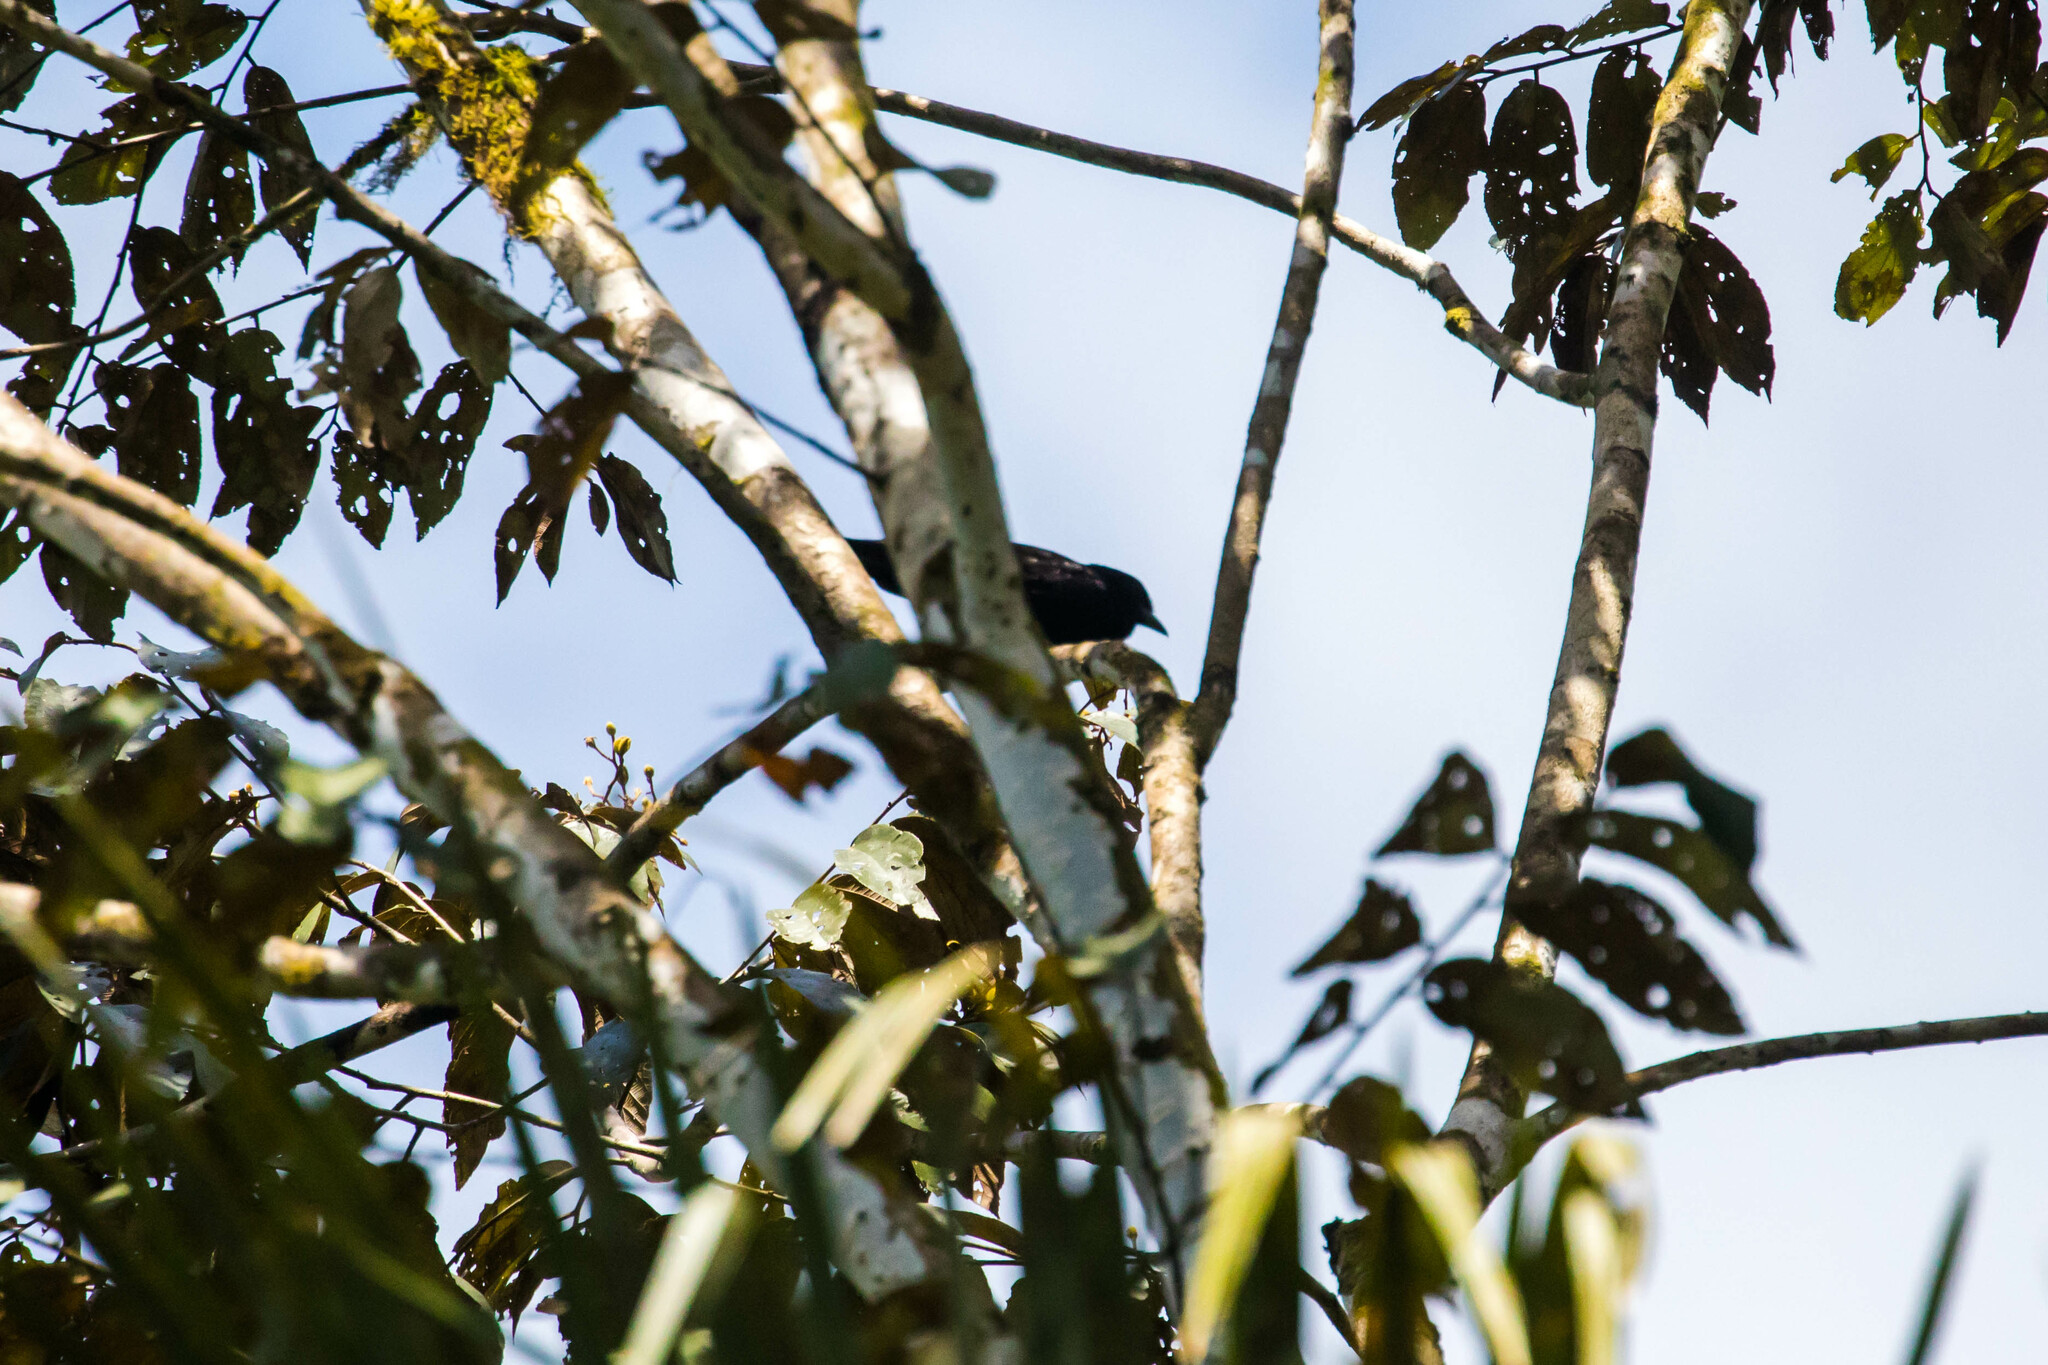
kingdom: Animalia
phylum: Chordata
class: Aves
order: Passeriformes
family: Cotingidae
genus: Querula
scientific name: Querula purpurata
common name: Purple-throated fruitcrow
